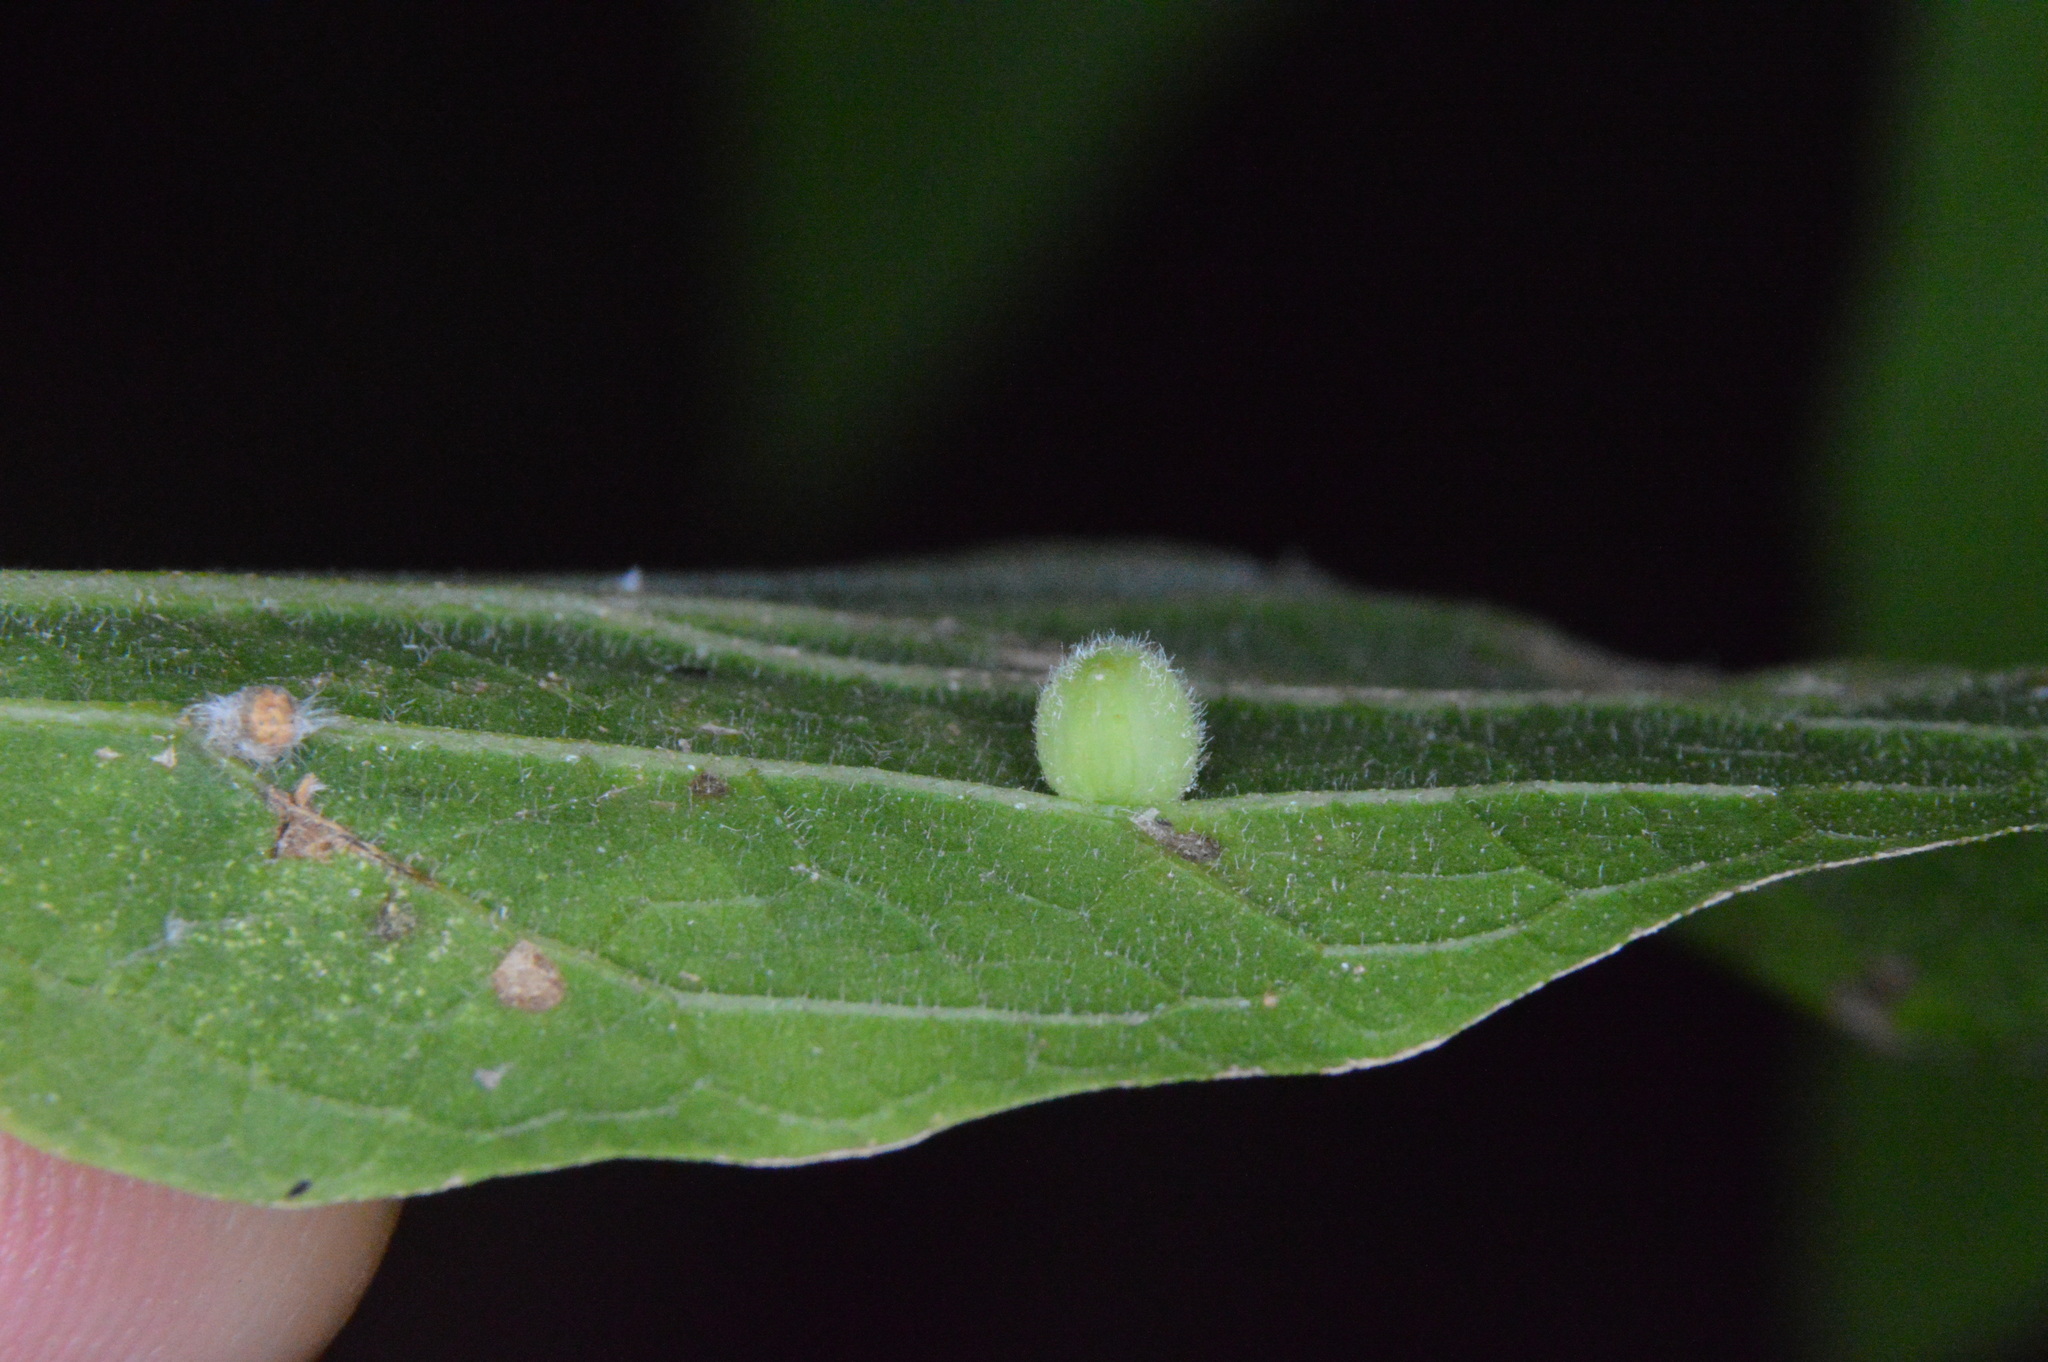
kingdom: Animalia
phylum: Arthropoda
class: Insecta
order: Diptera
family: Cecidomyiidae
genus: Celticecis
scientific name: Celticecis globosa
